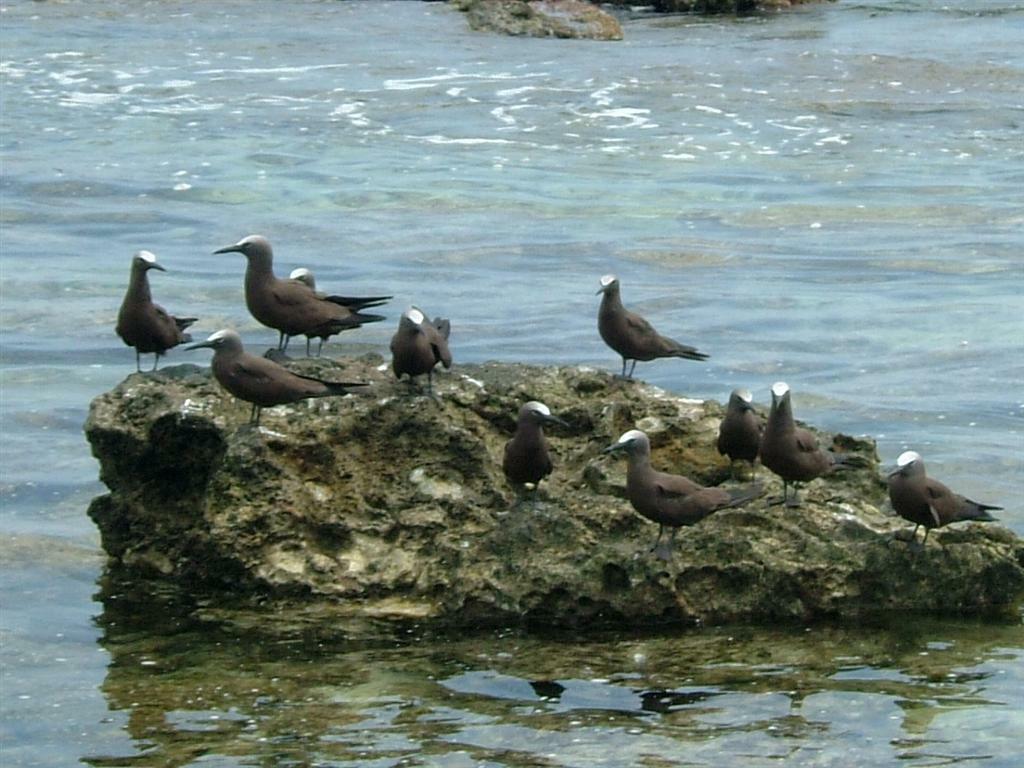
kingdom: Animalia
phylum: Chordata
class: Aves
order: Charadriiformes
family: Laridae
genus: Anous
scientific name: Anous stolidus
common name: Brown noddy
